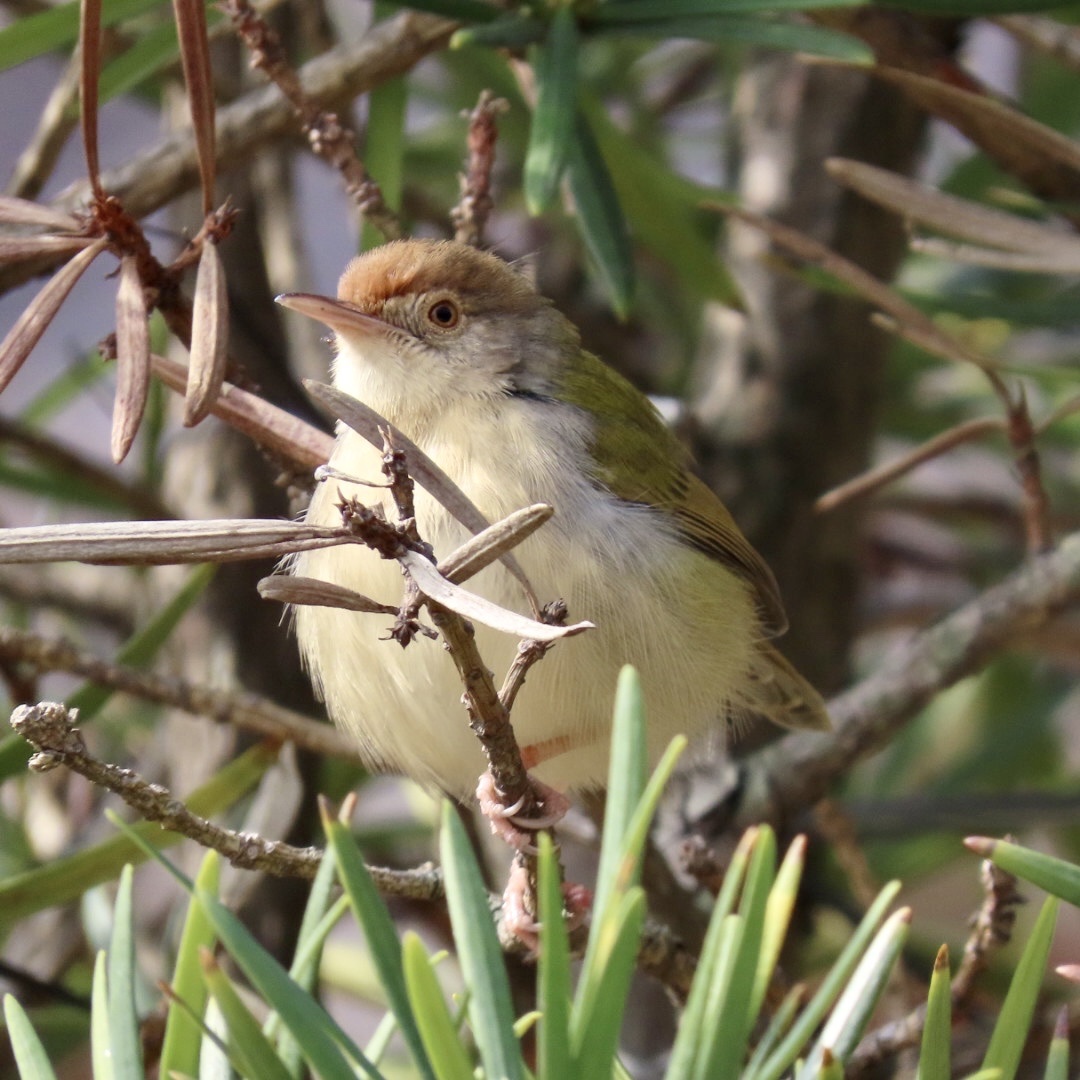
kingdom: Animalia
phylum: Chordata
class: Aves
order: Passeriformes
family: Cisticolidae
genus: Orthotomus
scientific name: Orthotomus sutorius
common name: Common tailorbird
